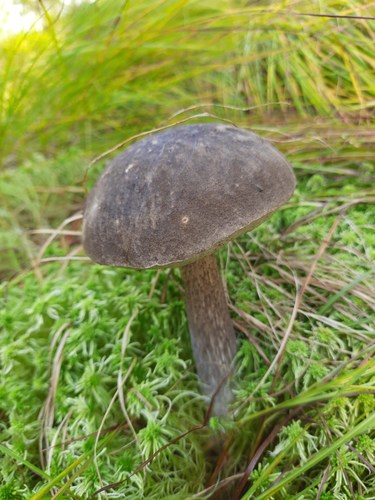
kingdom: Fungi
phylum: Basidiomycota
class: Agaricomycetes
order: Boletales
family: Boletaceae
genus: Leccinum
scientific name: Leccinum variicolor
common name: Mottled bolete
